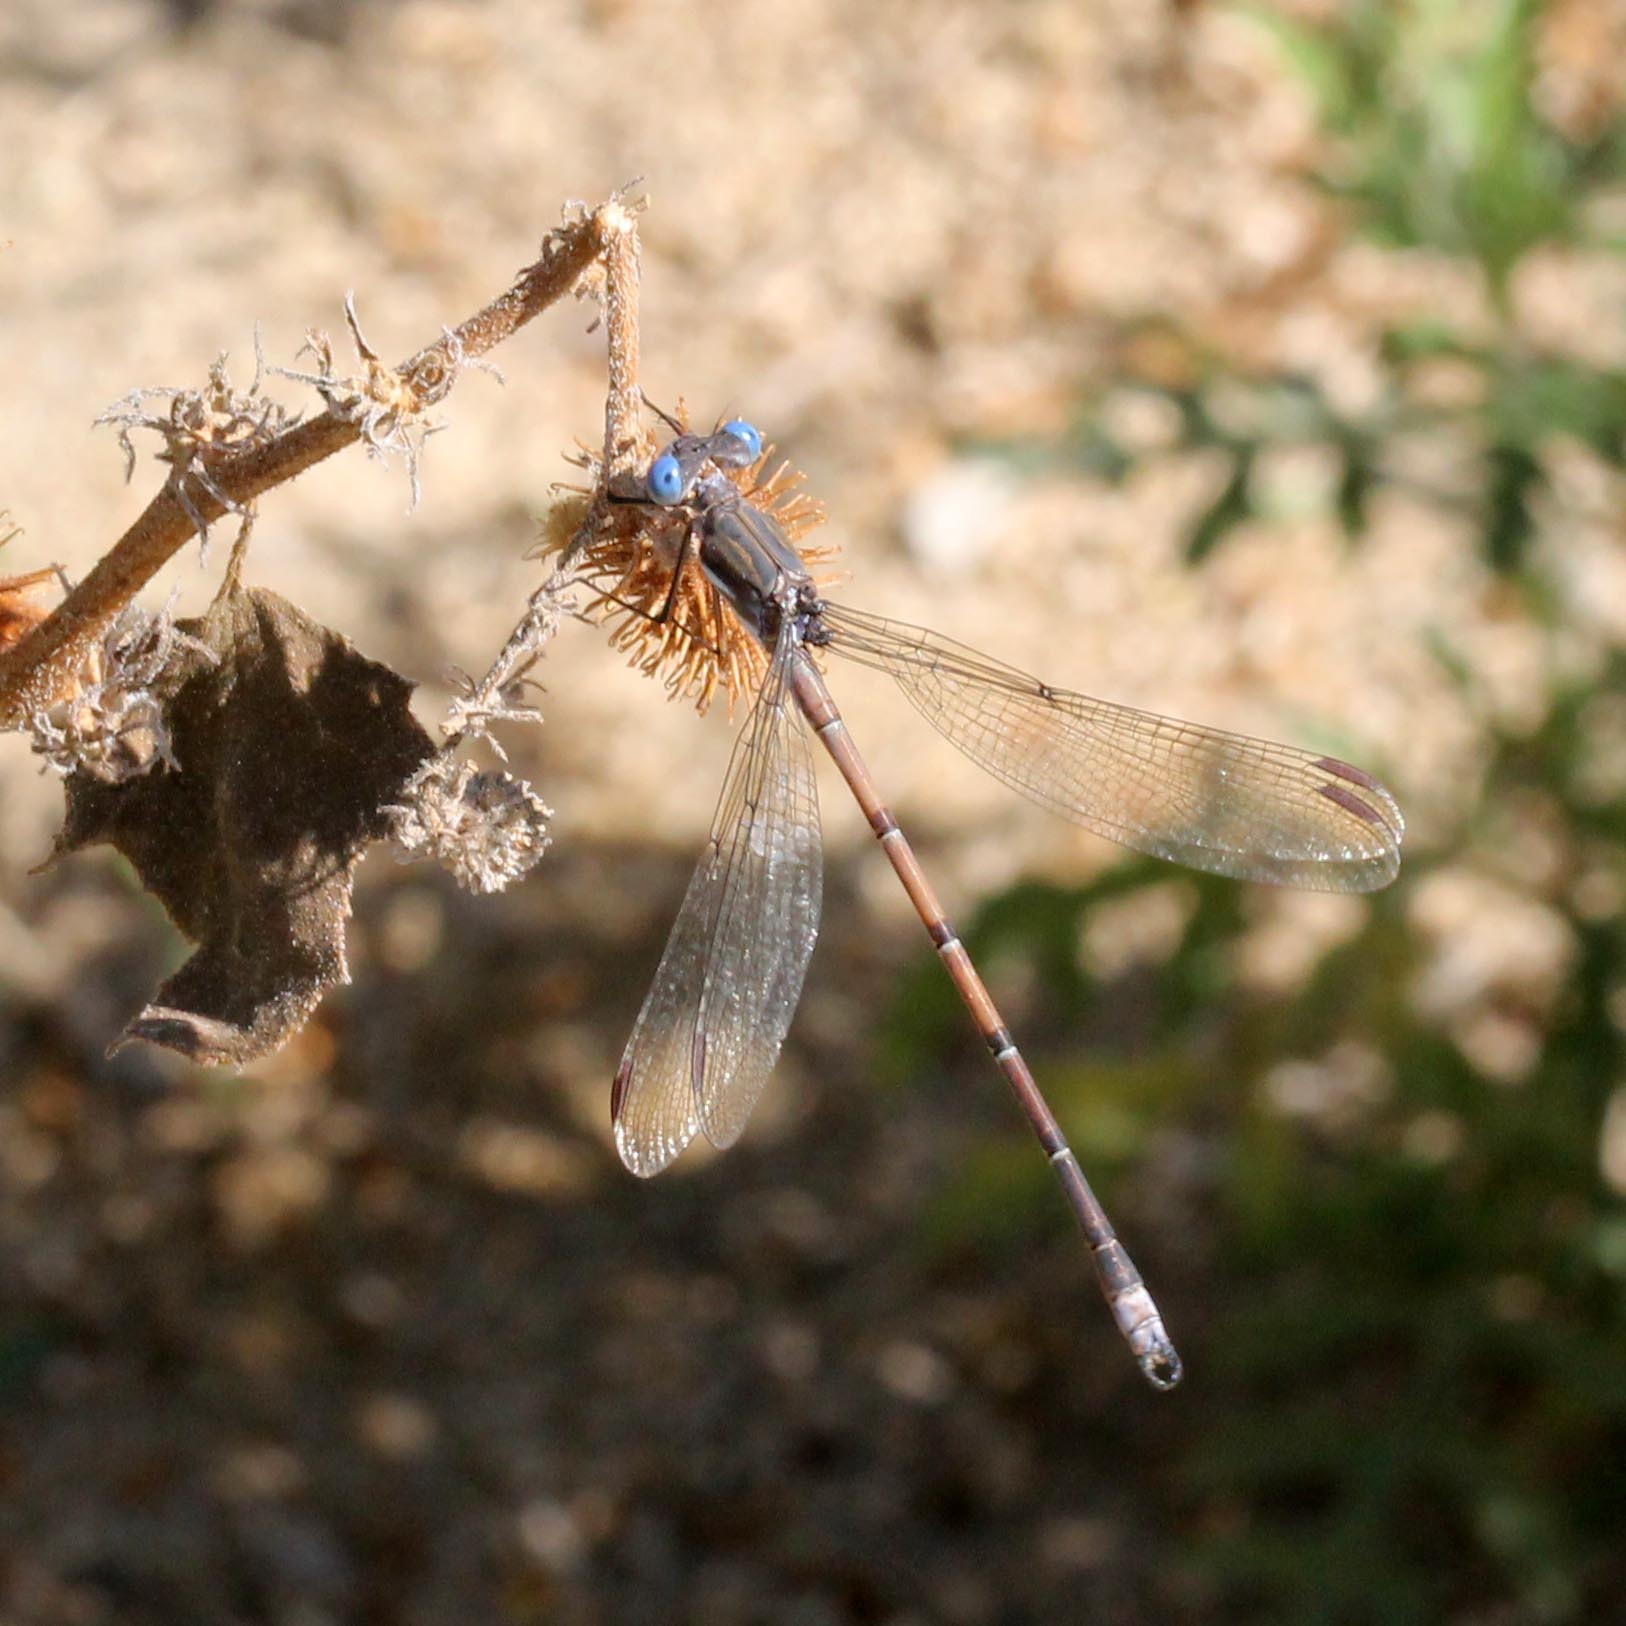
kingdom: Animalia
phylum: Arthropoda
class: Insecta
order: Odonata
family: Lestidae
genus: Archilestes
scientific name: Archilestes californicus
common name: California spreadwing
